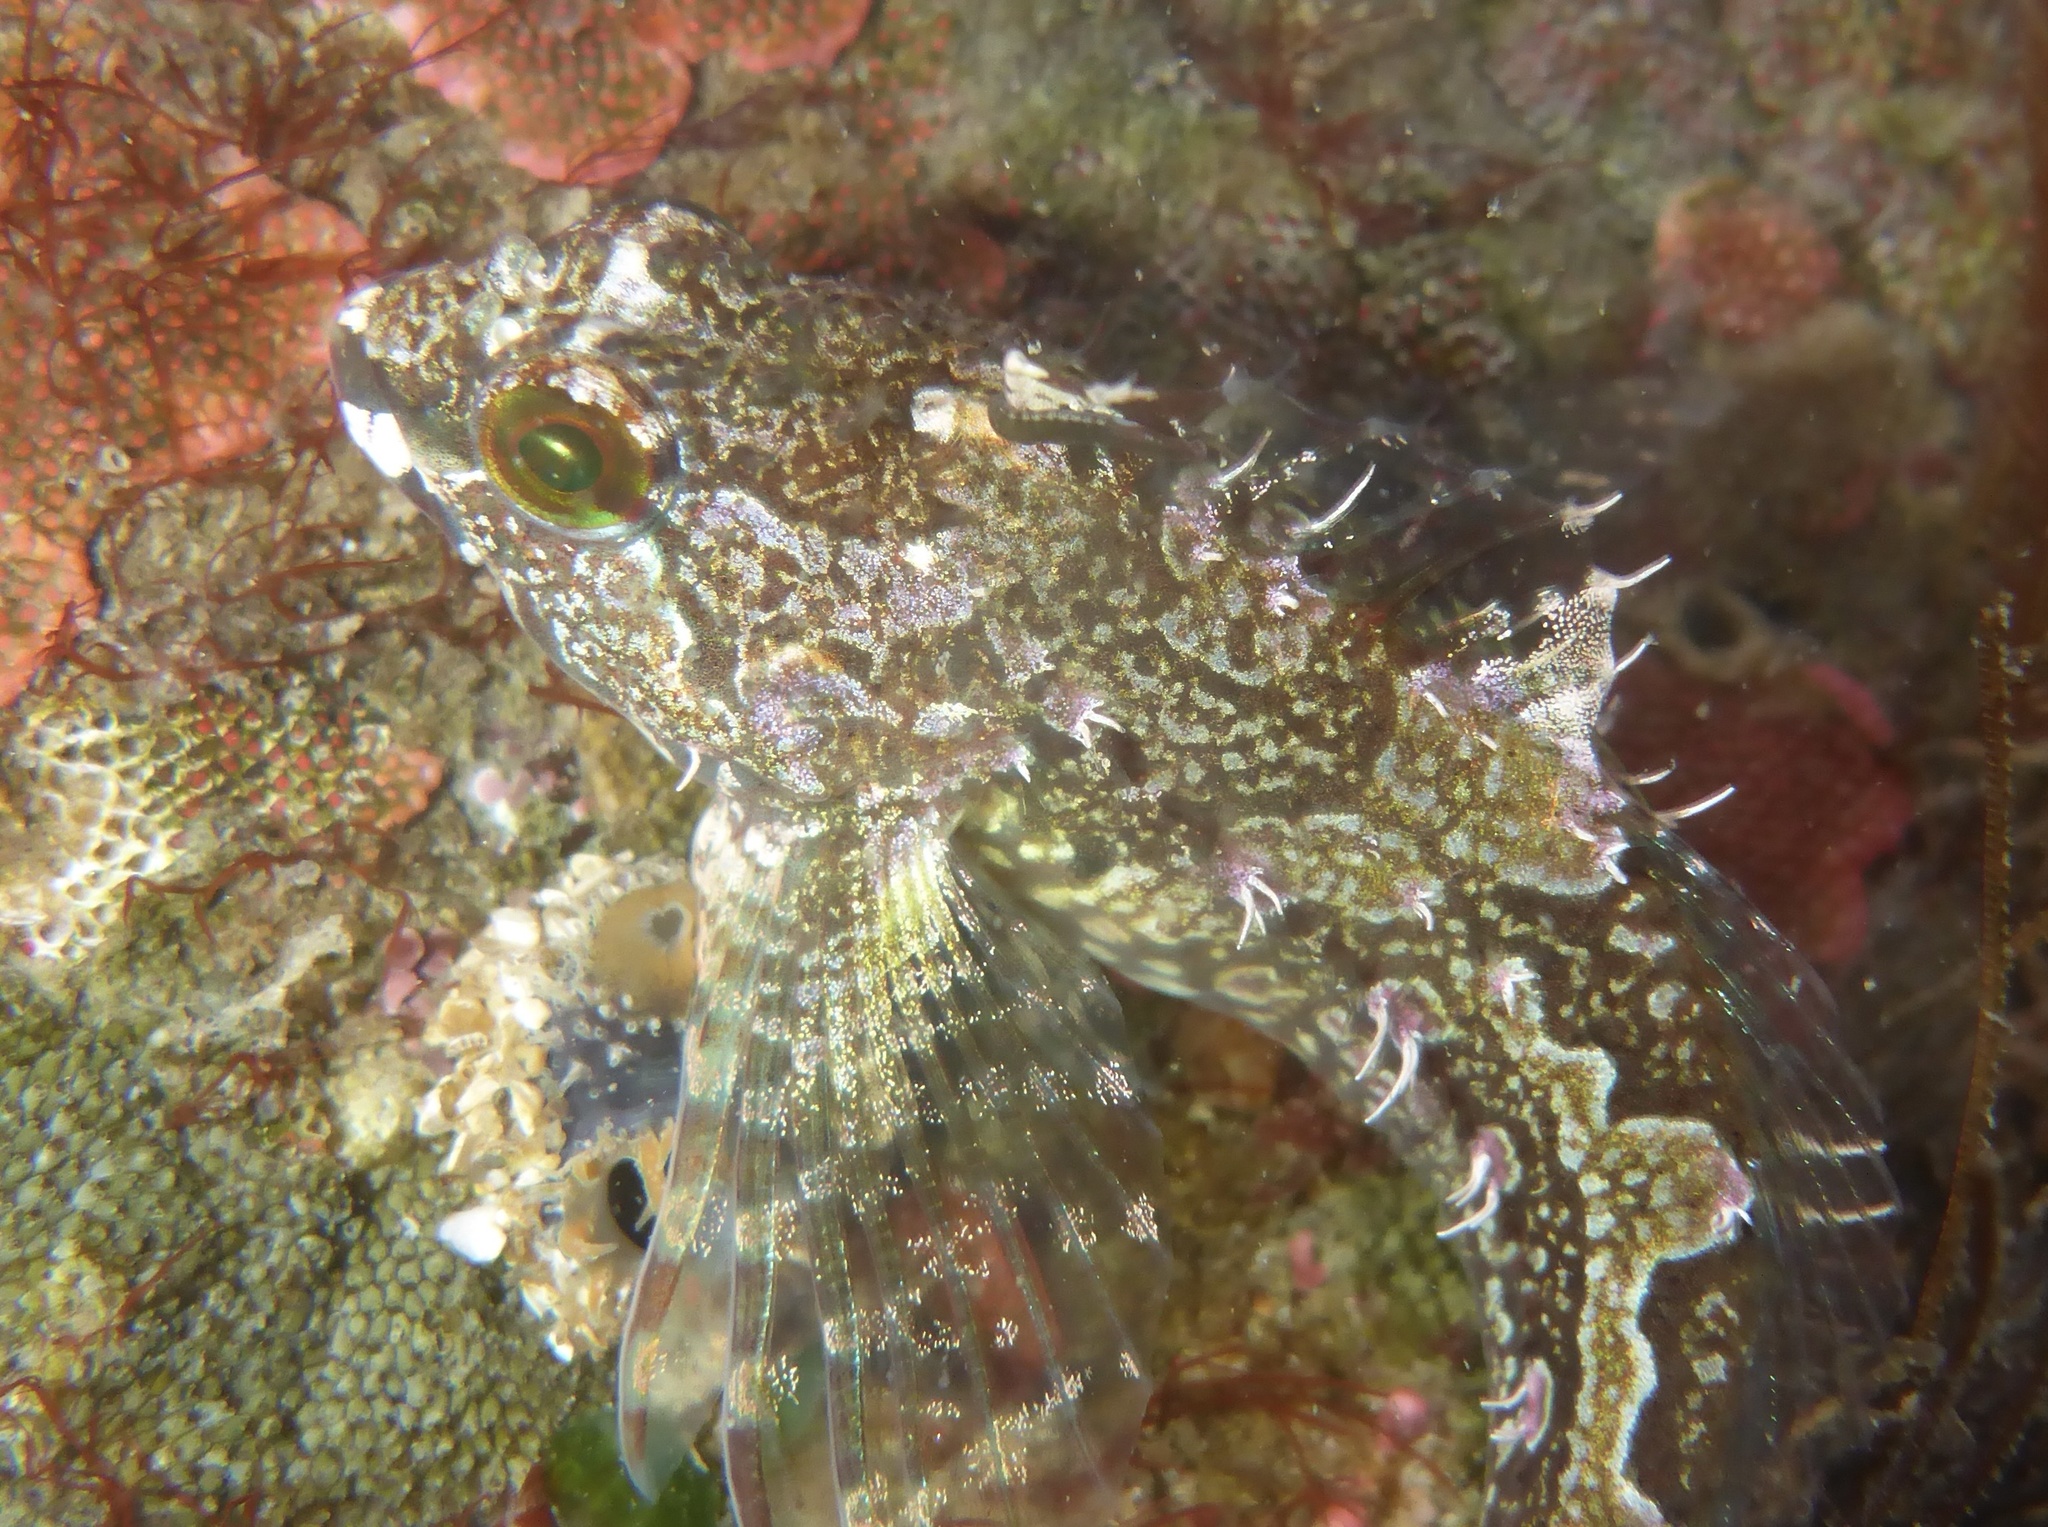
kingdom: Animalia
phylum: Chordata
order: Scorpaeniformes
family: Cottidae
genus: Oligocottus
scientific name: Oligocottus snyderi
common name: Fluffy sculpin
